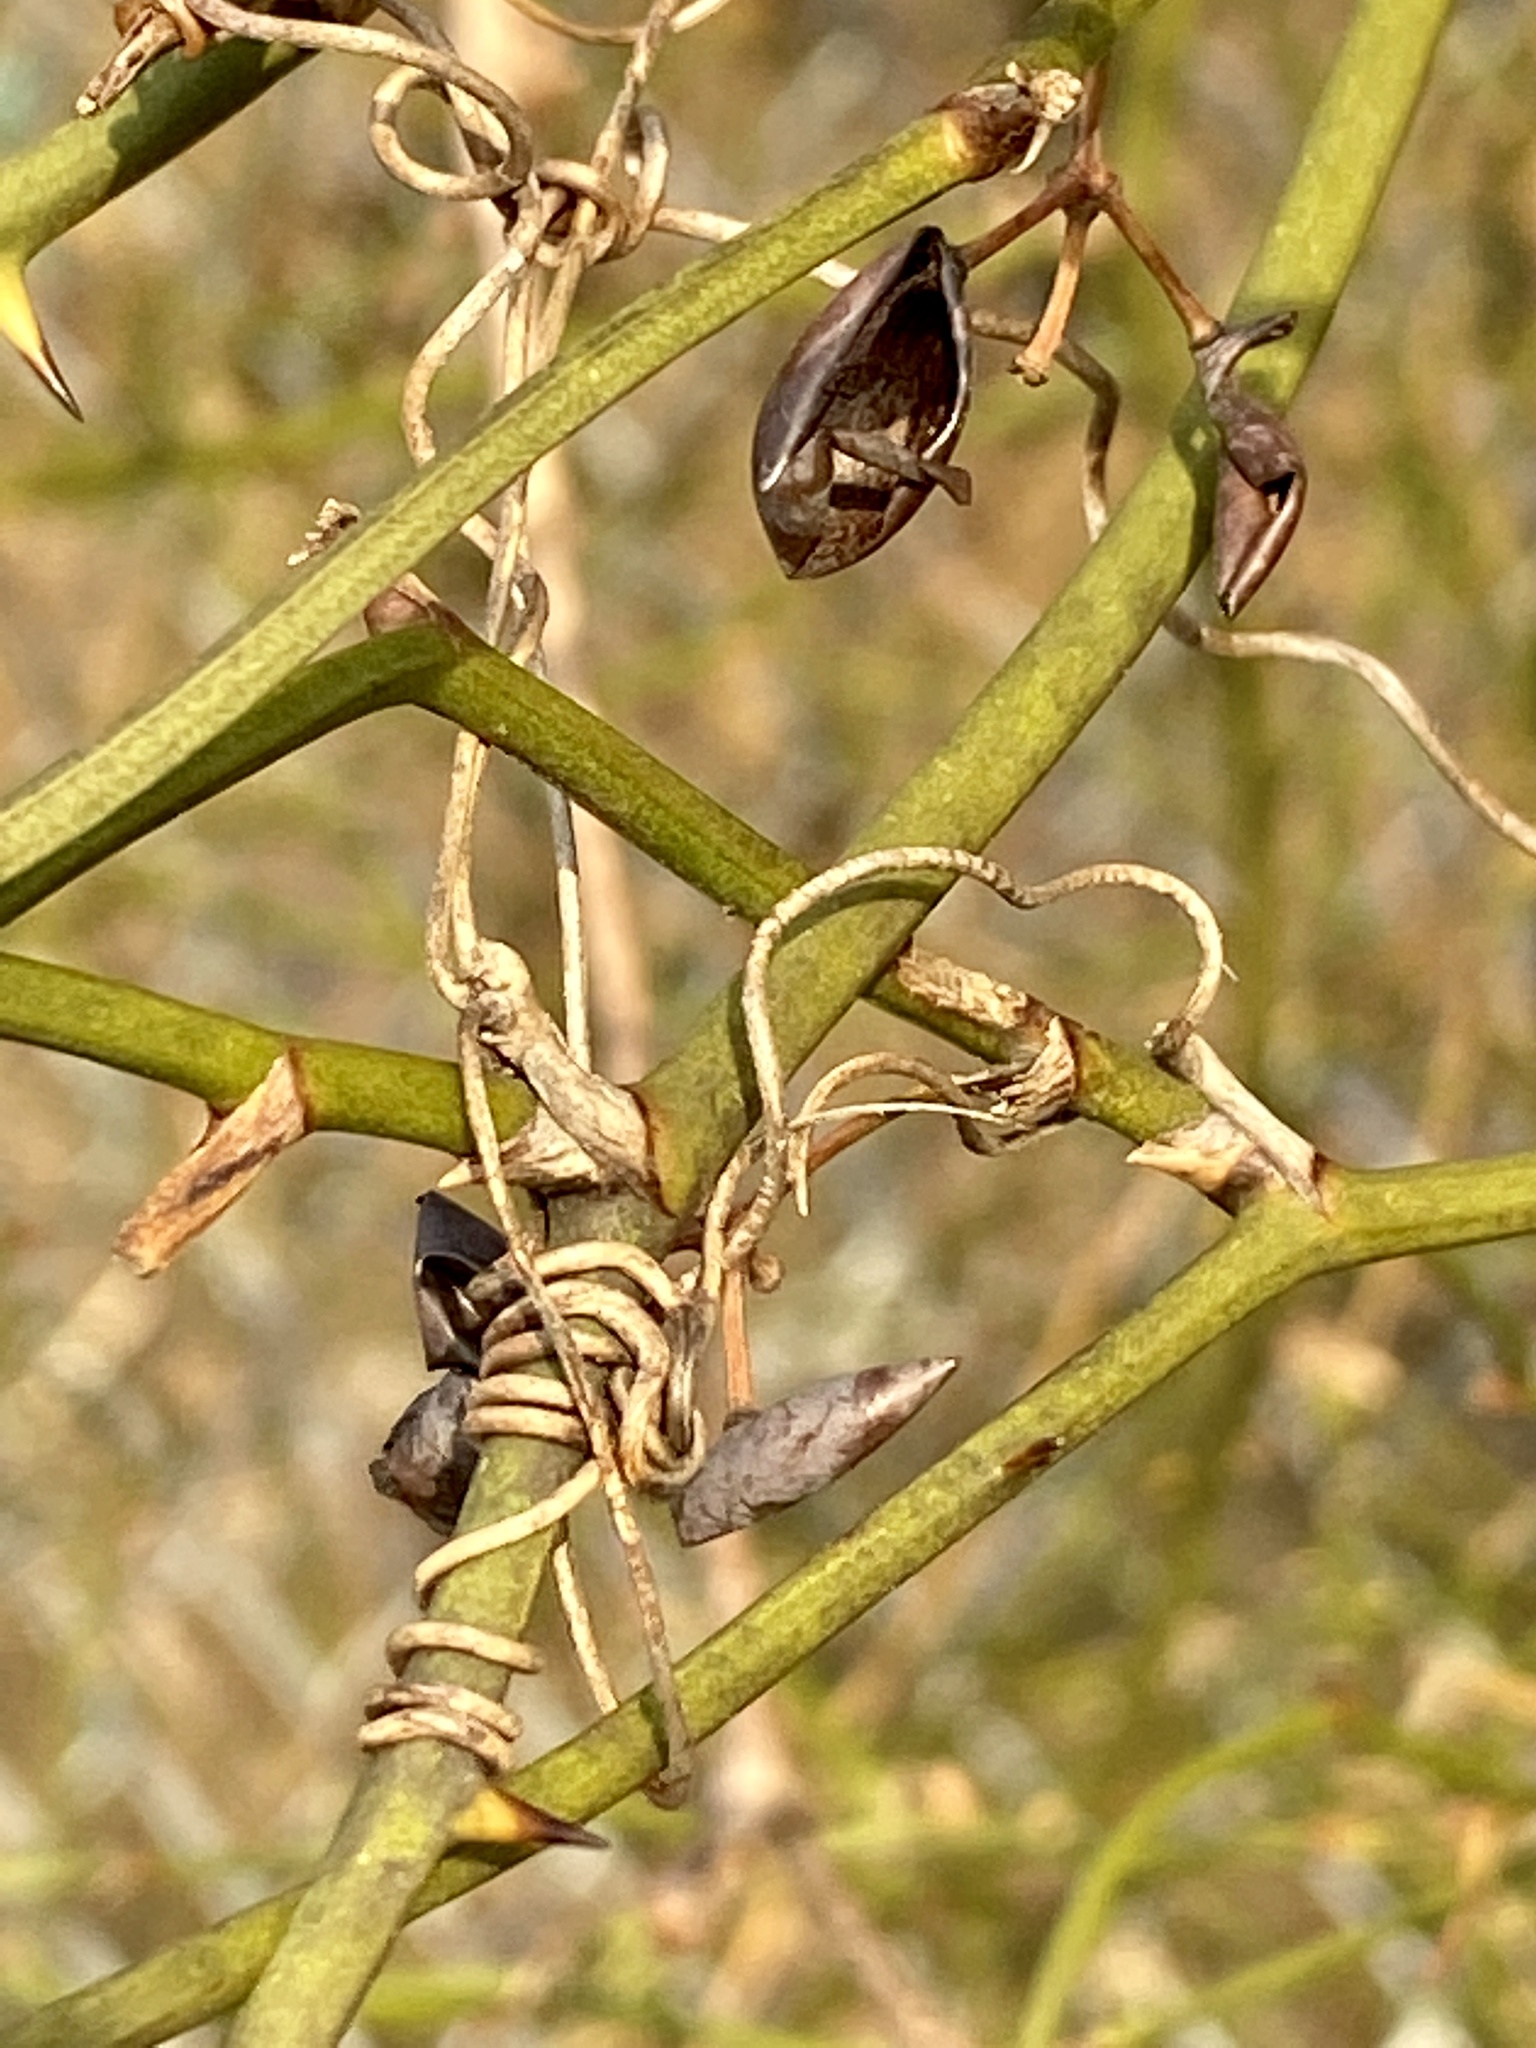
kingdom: Plantae
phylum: Tracheophyta
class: Liliopsida
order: Liliales
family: Smilacaceae
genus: Smilax
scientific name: Smilax rotundifolia
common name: Bullbriar
